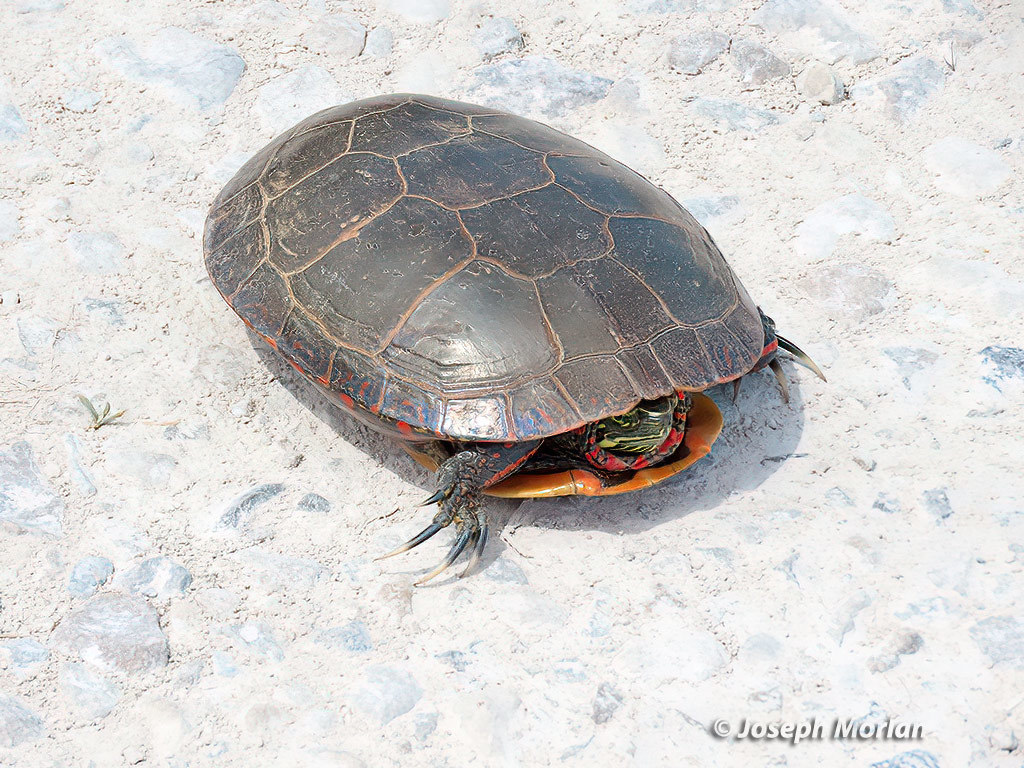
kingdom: Animalia
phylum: Chordata
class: Testudines
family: Emydidae
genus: Chrysemys
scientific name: Chrysemys picta
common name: Painted turtle
